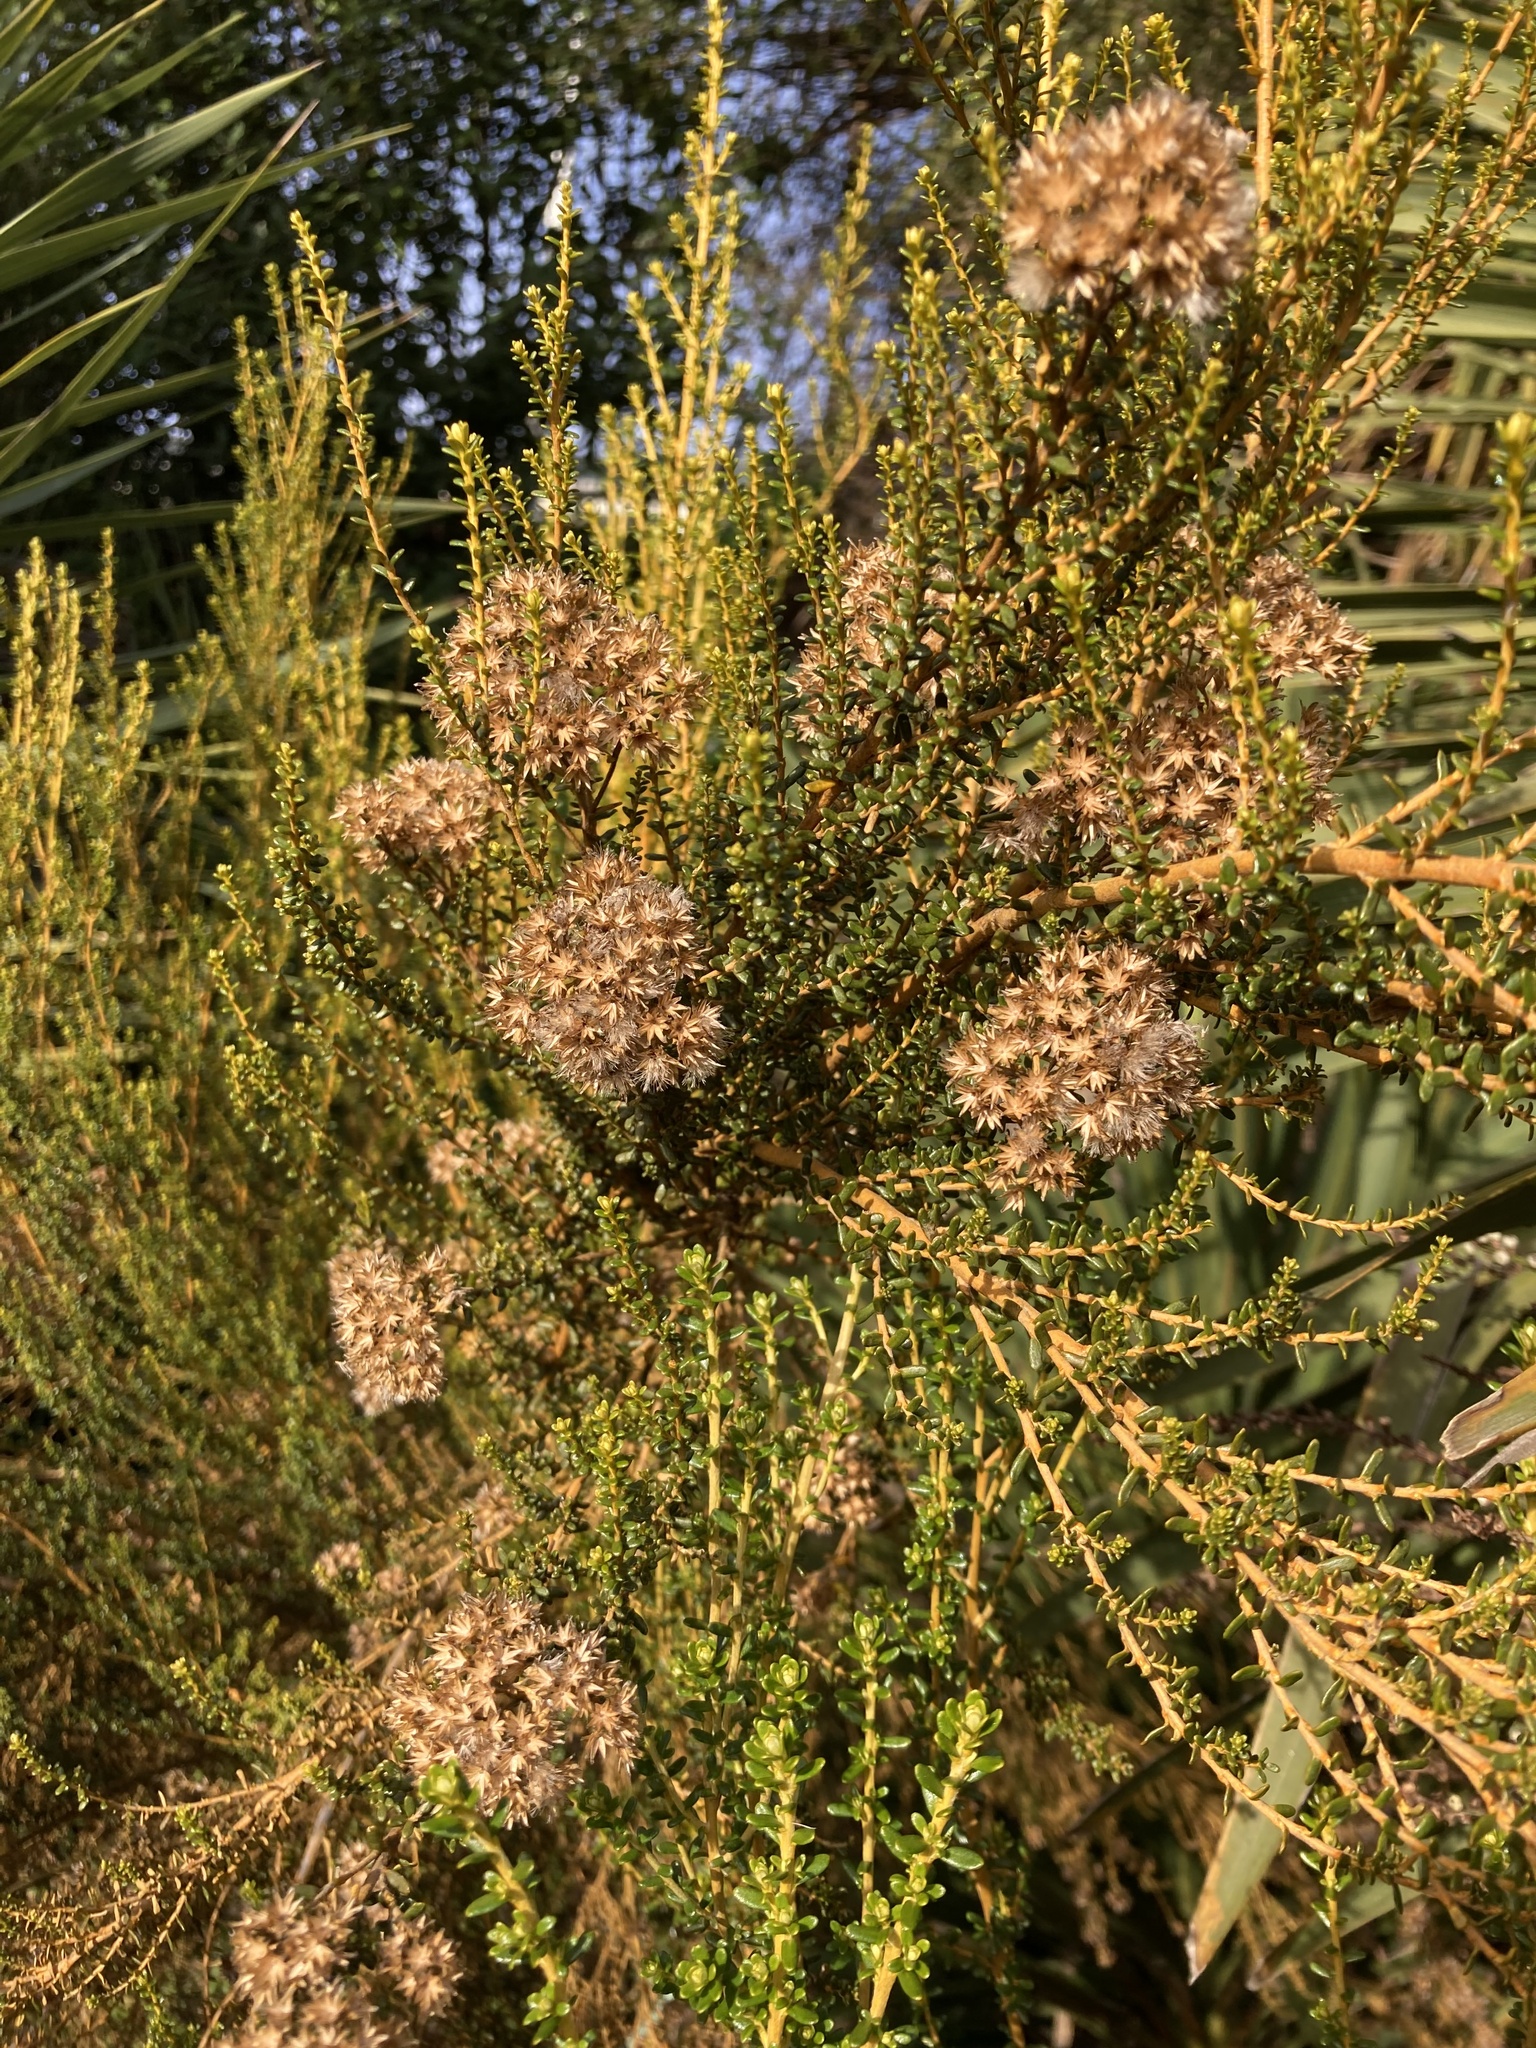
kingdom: Plantae
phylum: Tracheophyta
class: Magnoliopsida
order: Asterales
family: Asteraceae
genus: Ozothamnus
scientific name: Ozothamnus leptophyllus
